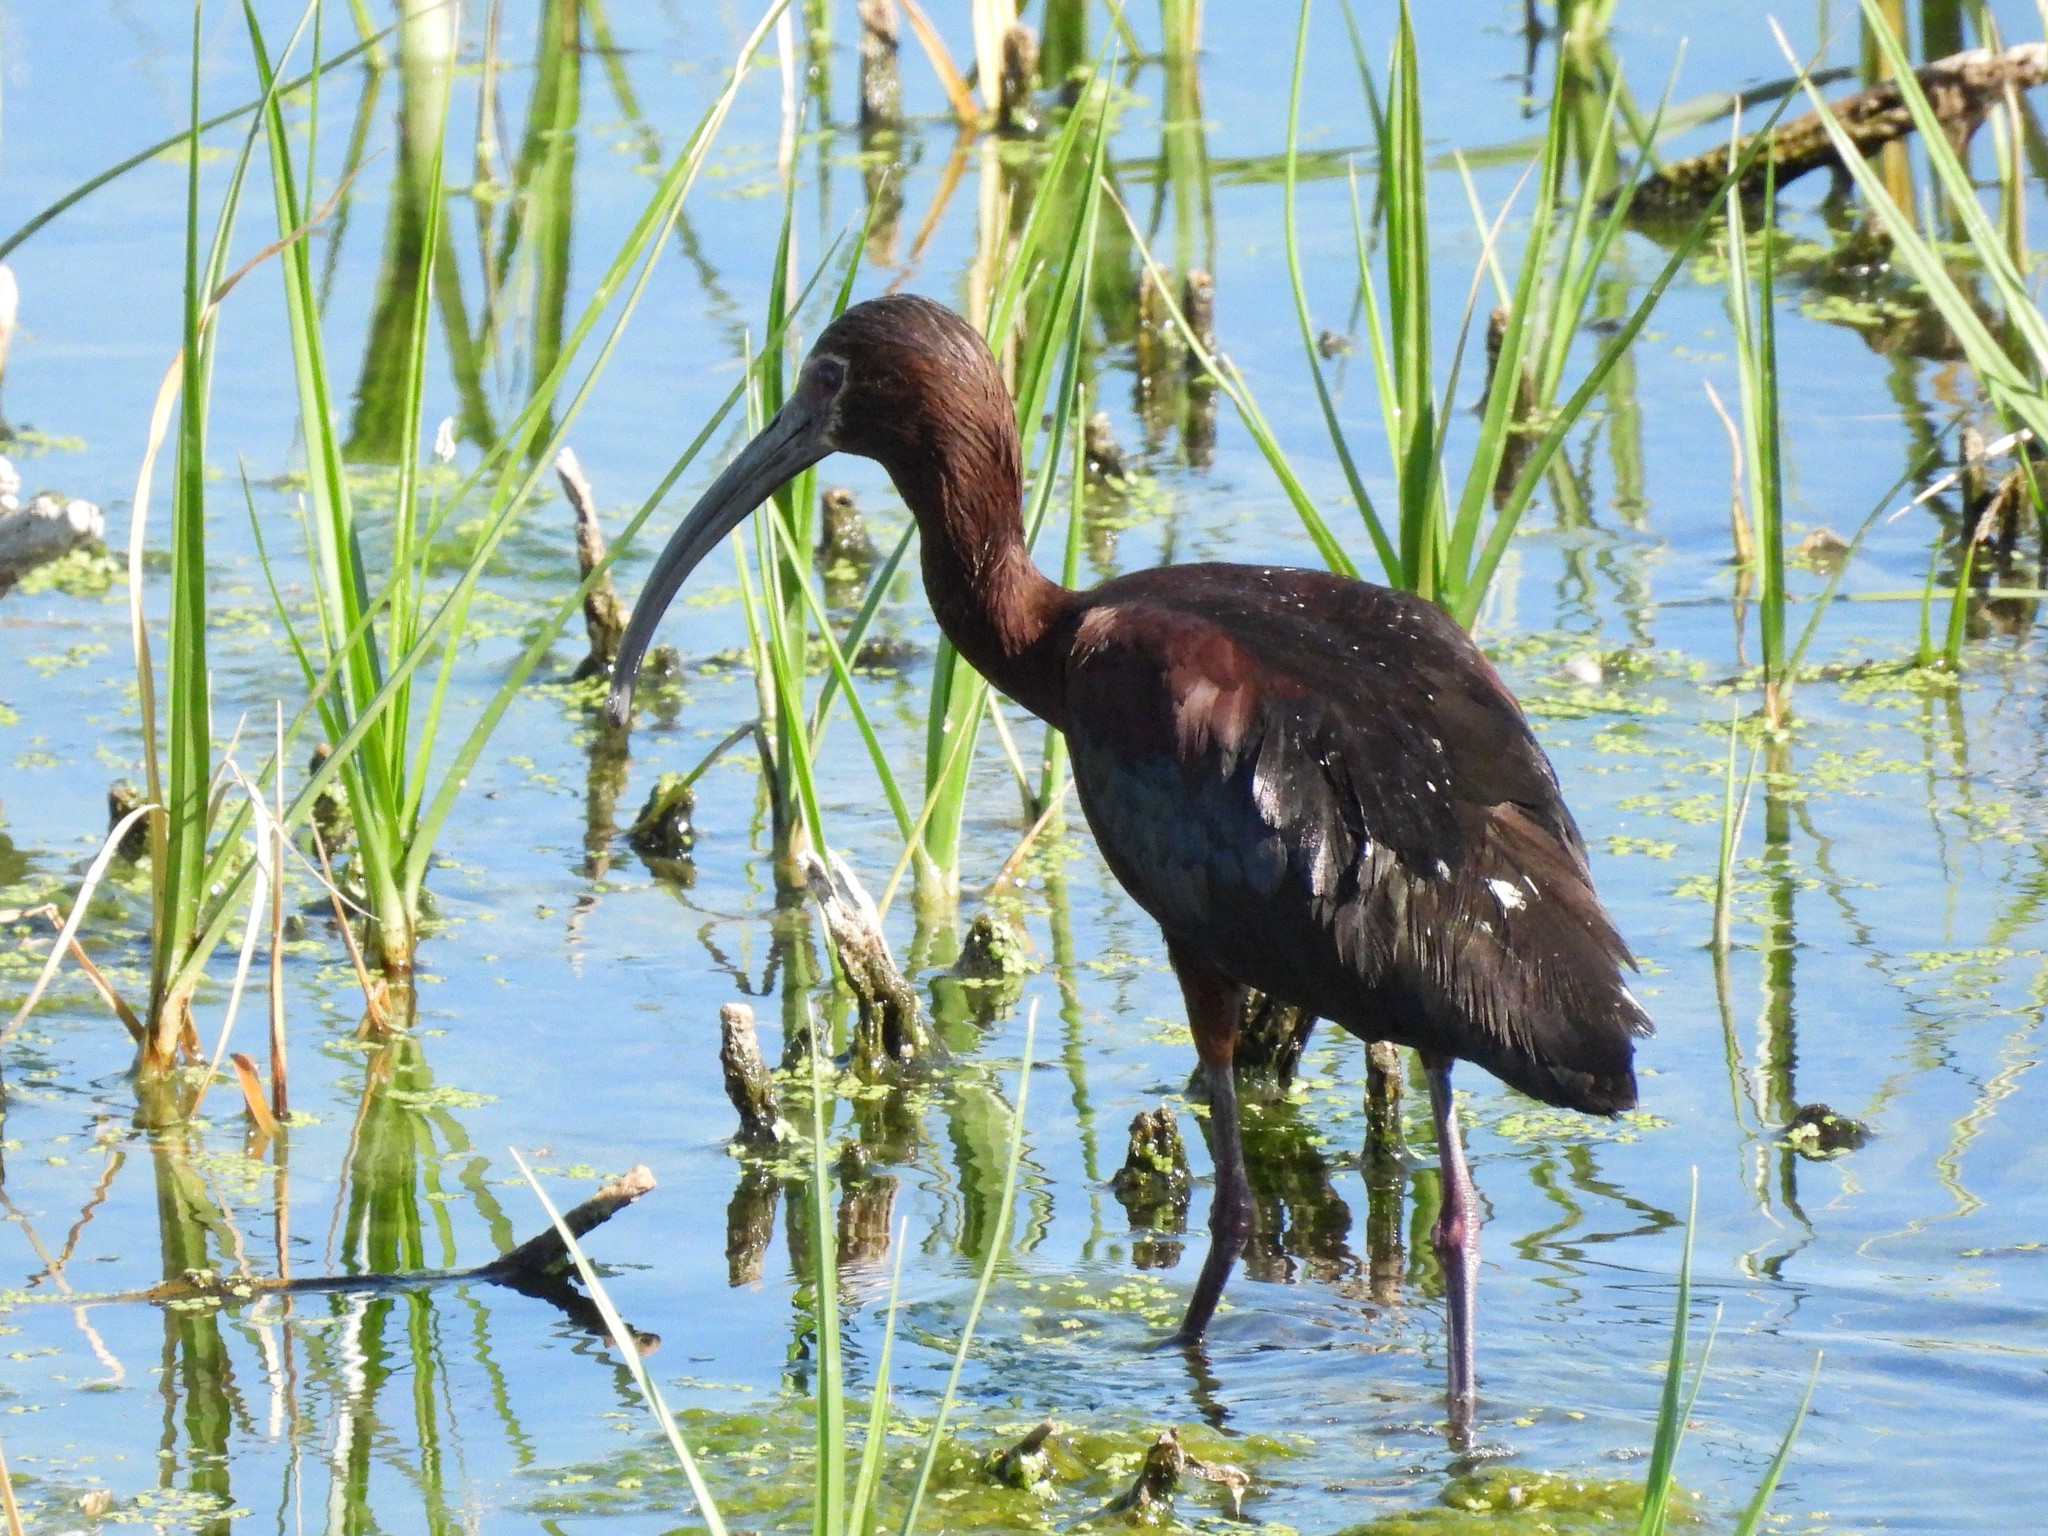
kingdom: Animalia
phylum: Chordata
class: Aves
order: Pelecaniformes
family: Threskiornithidae
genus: Plegadis
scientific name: Plegadis chihi
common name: White-faced ibis
